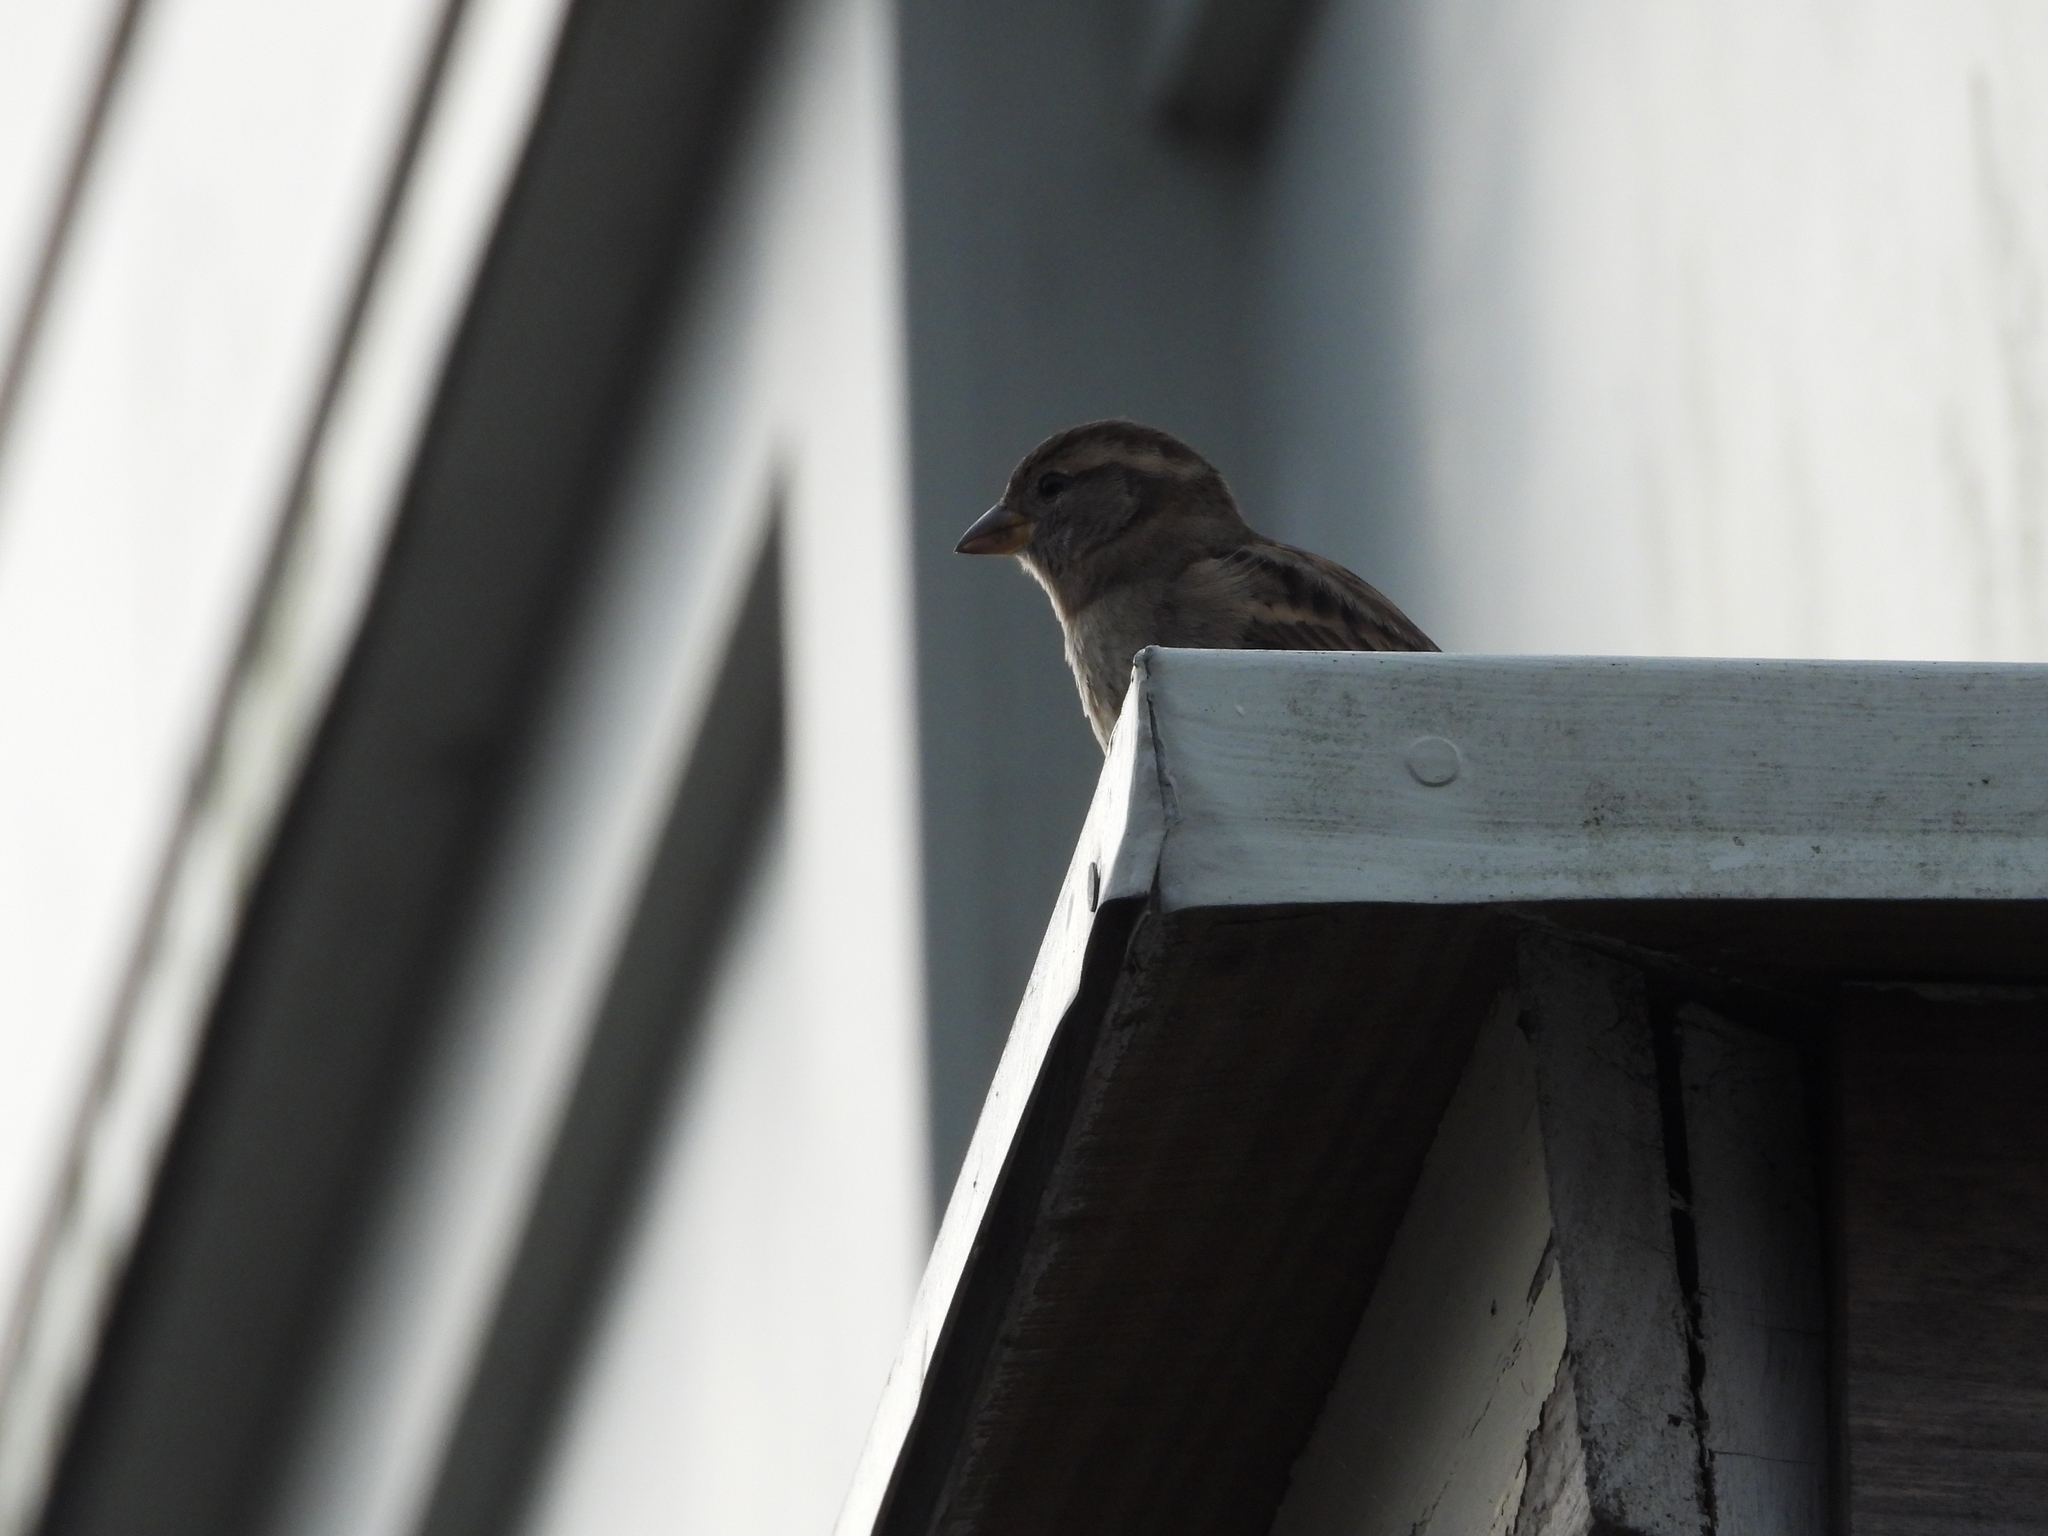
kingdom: Animalia
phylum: Chordata
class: Aves
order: Passeriformes
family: Passeridae
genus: Passer
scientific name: Passer domesticus
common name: House sparrow
